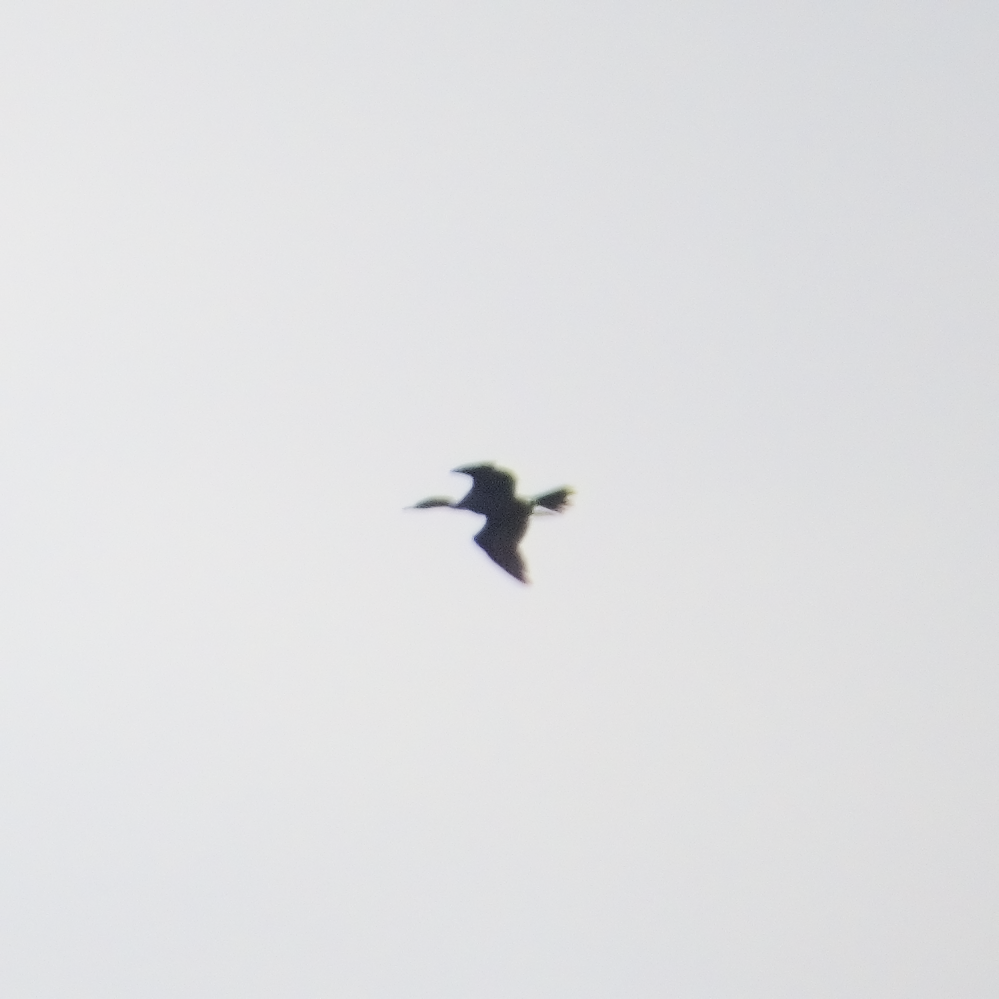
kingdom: Animalia
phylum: Chordata
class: Aves
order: Suliformes
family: Phalacrocoracidae
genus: Phalacrocorax
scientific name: Phalacrocorax sulcirostris
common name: Little black cormorant
